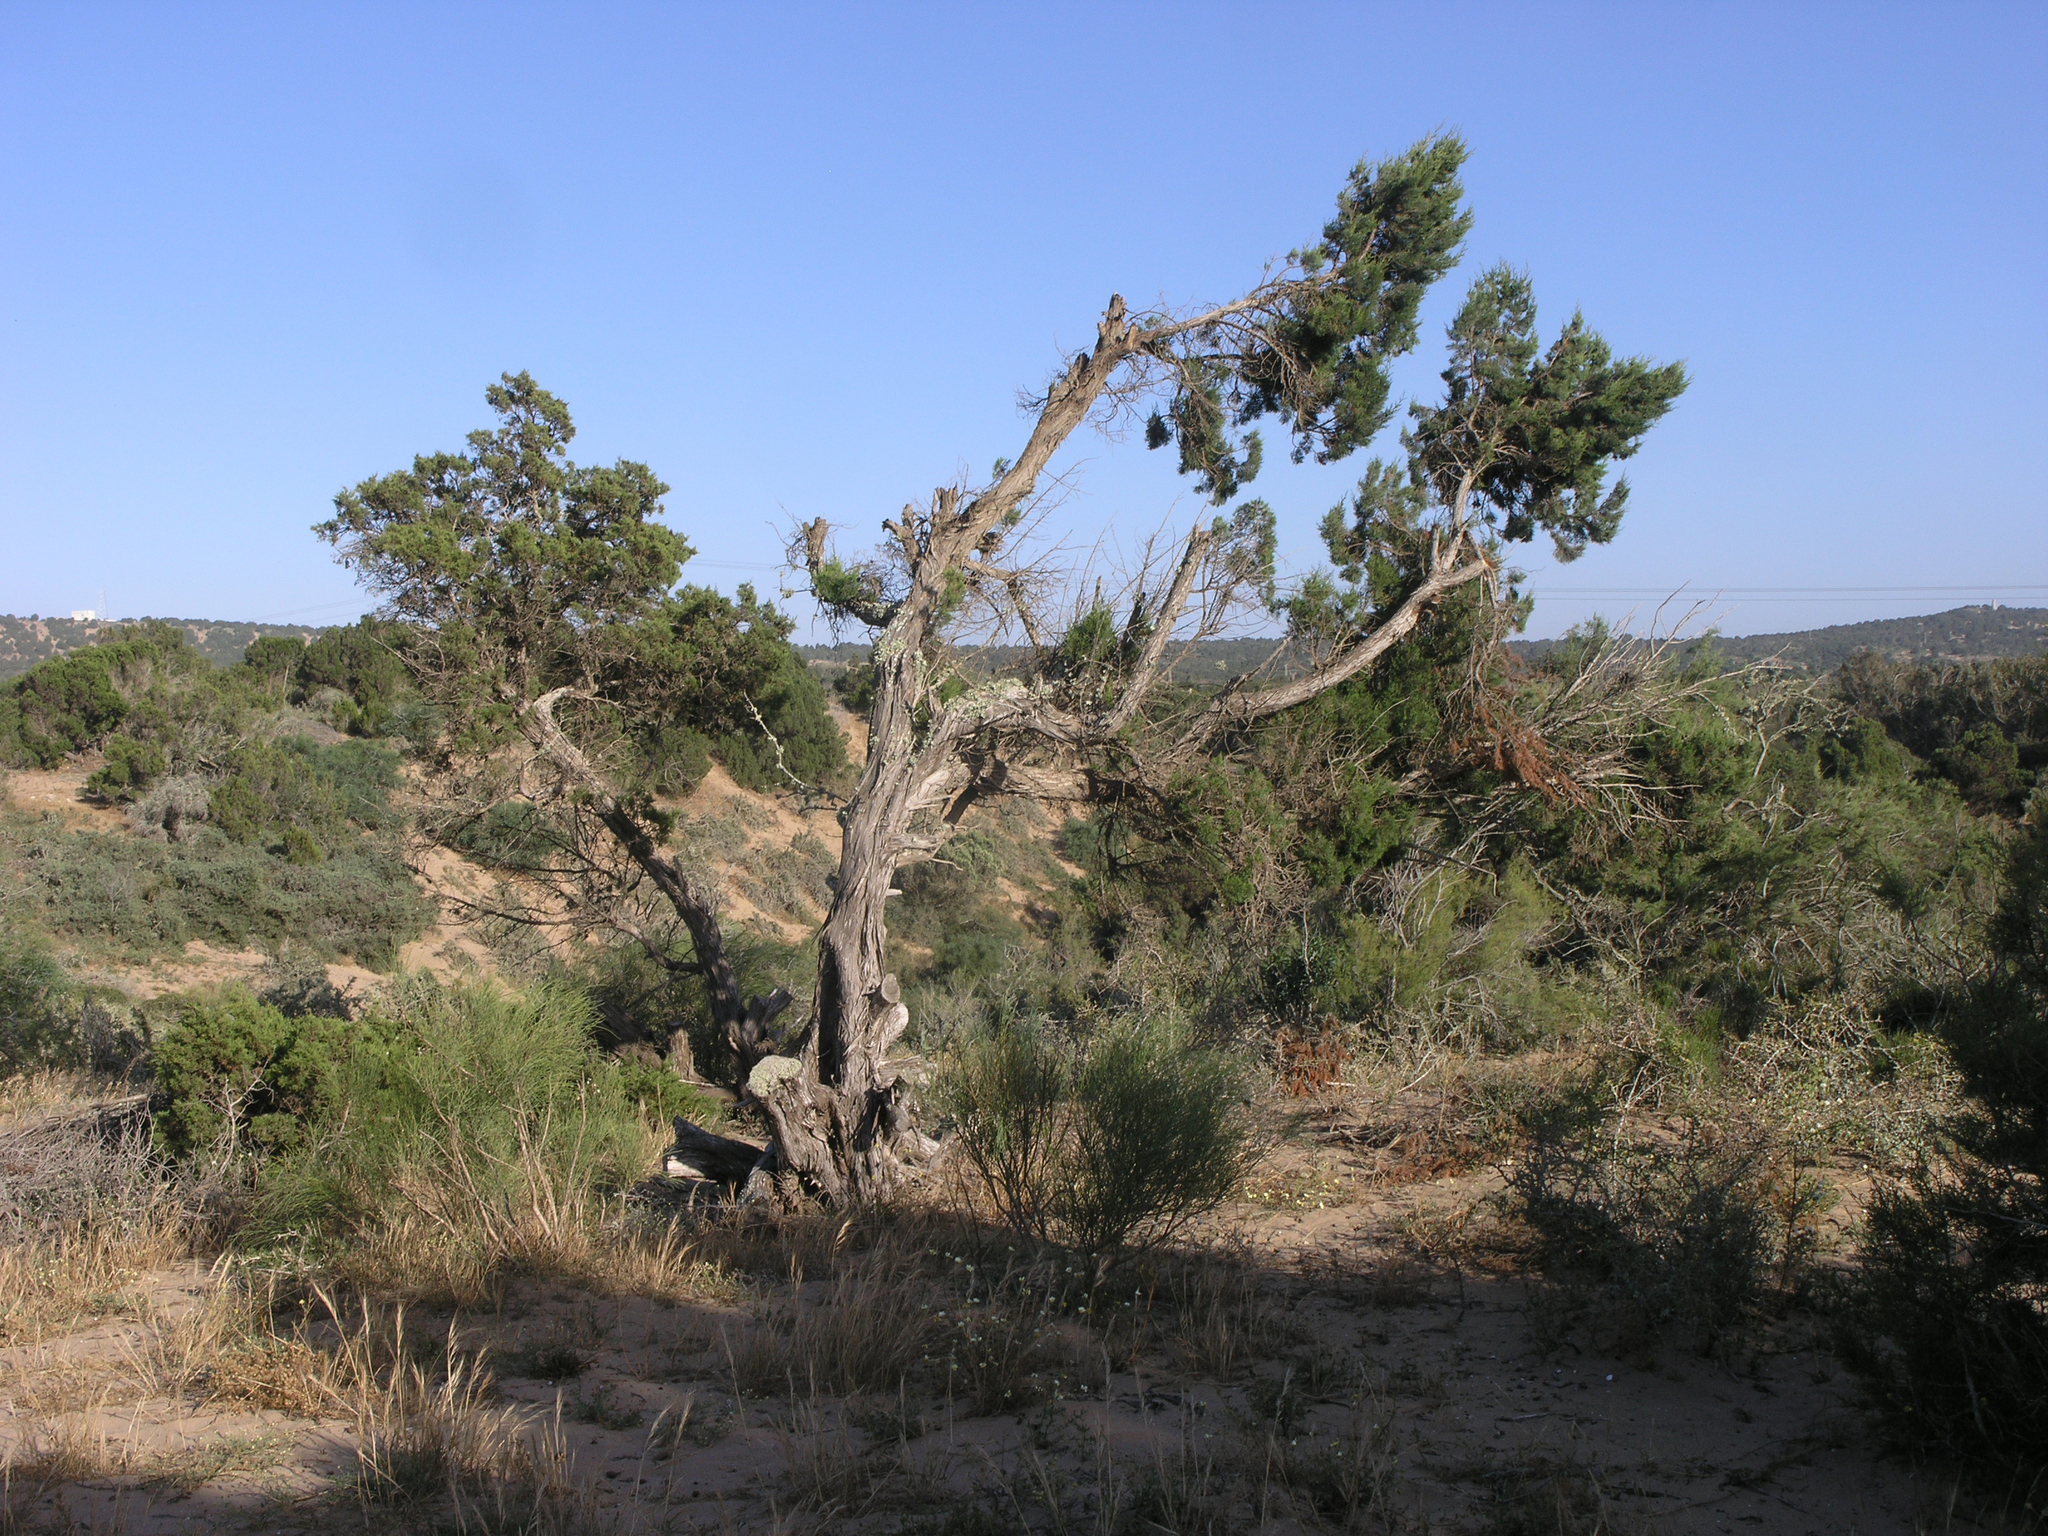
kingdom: Plantae
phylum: Tracheophyta
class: Pinopsida
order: Pinales
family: Cupressaceae
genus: Juniperus
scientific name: Juniperus phoenicea
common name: Phoenician juniper
